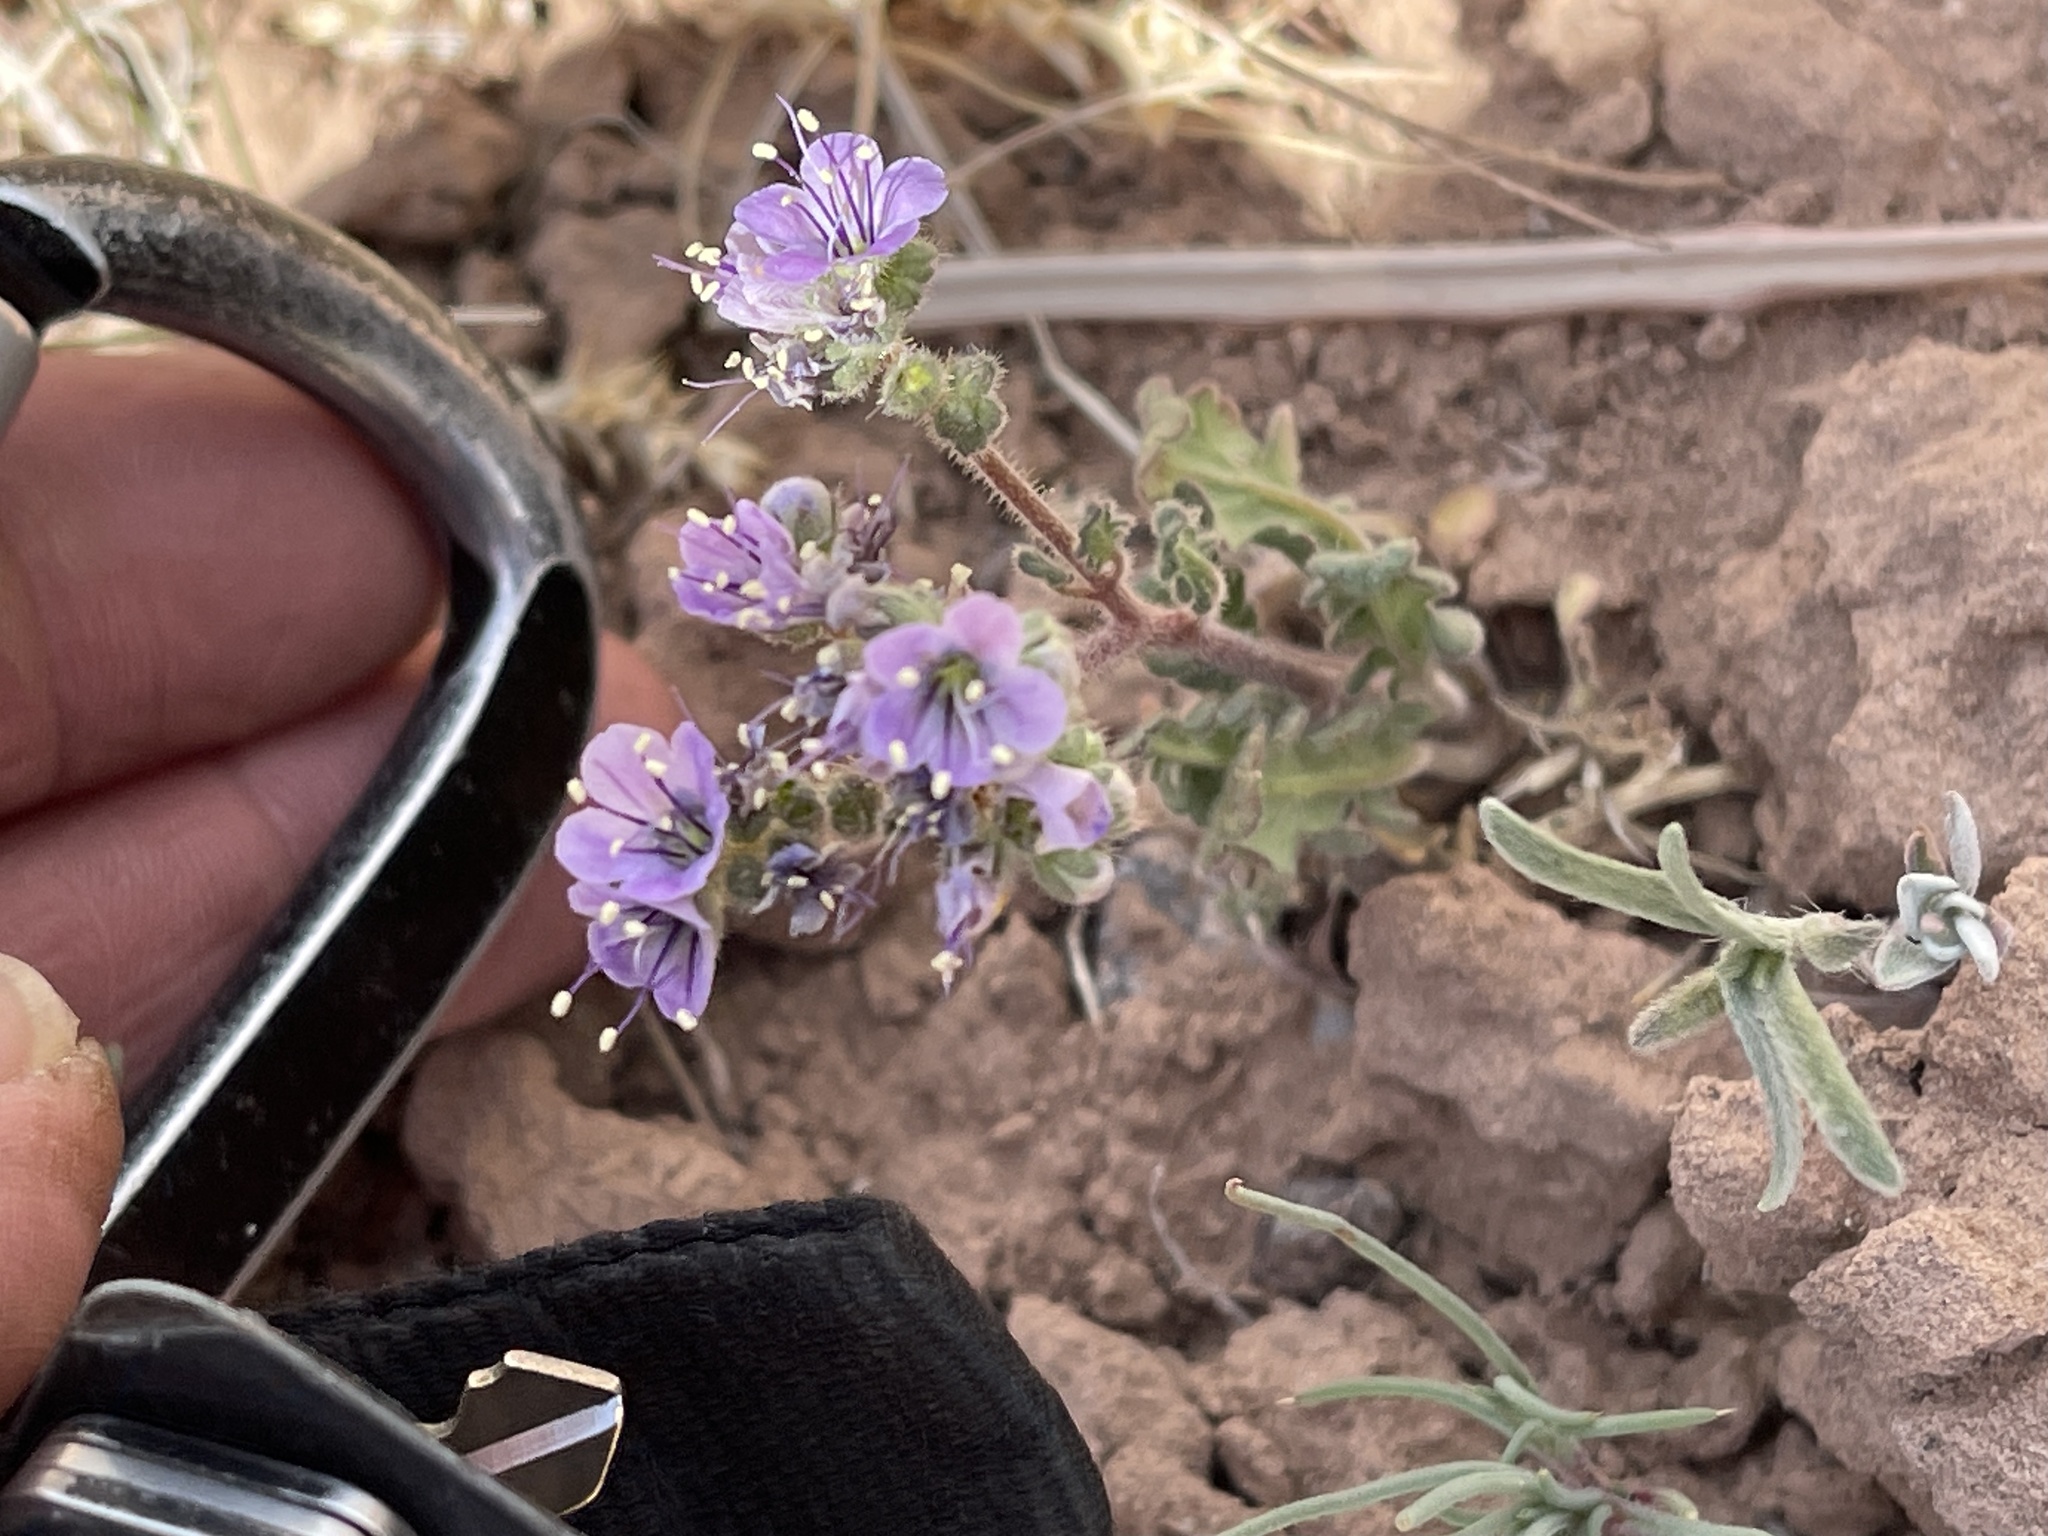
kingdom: Plantae
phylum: Tracheophyta
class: Magnoliopsida
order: Boraginales
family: Hydrophyllaceae
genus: Phacelia
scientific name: Phacelia bombycina
